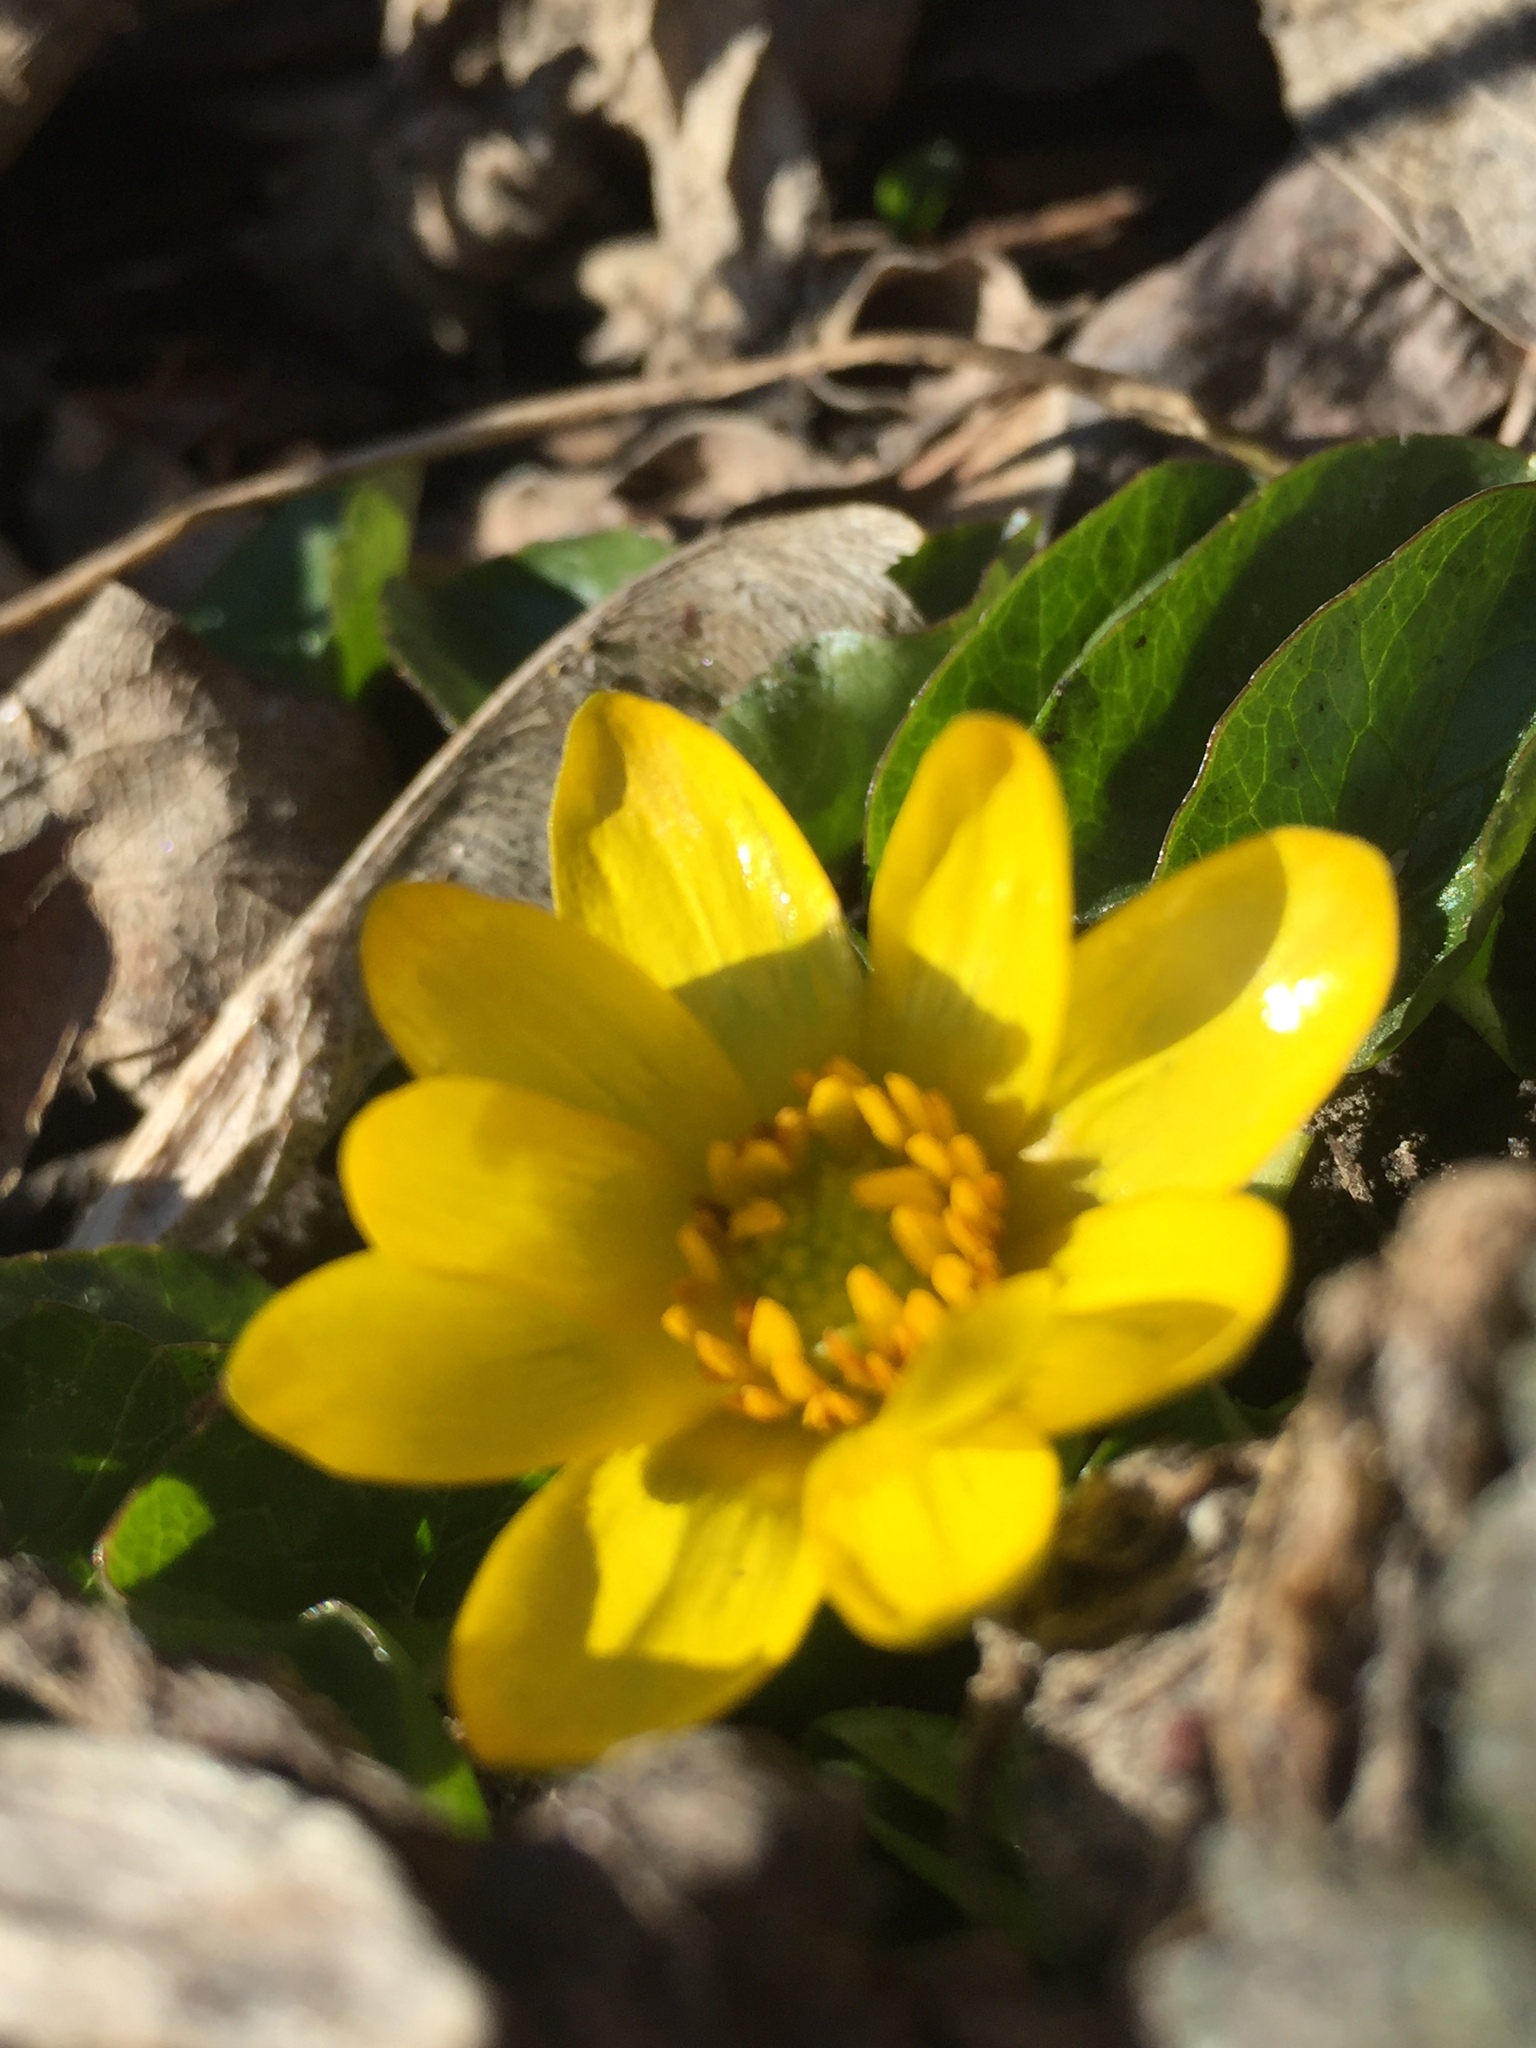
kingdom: Plantae
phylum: Tracheophyta
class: Magnoliopsida
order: Ranunculales
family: Ranunculaceae
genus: Ficaria
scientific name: Ficaria verna
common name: Lesser celandine
